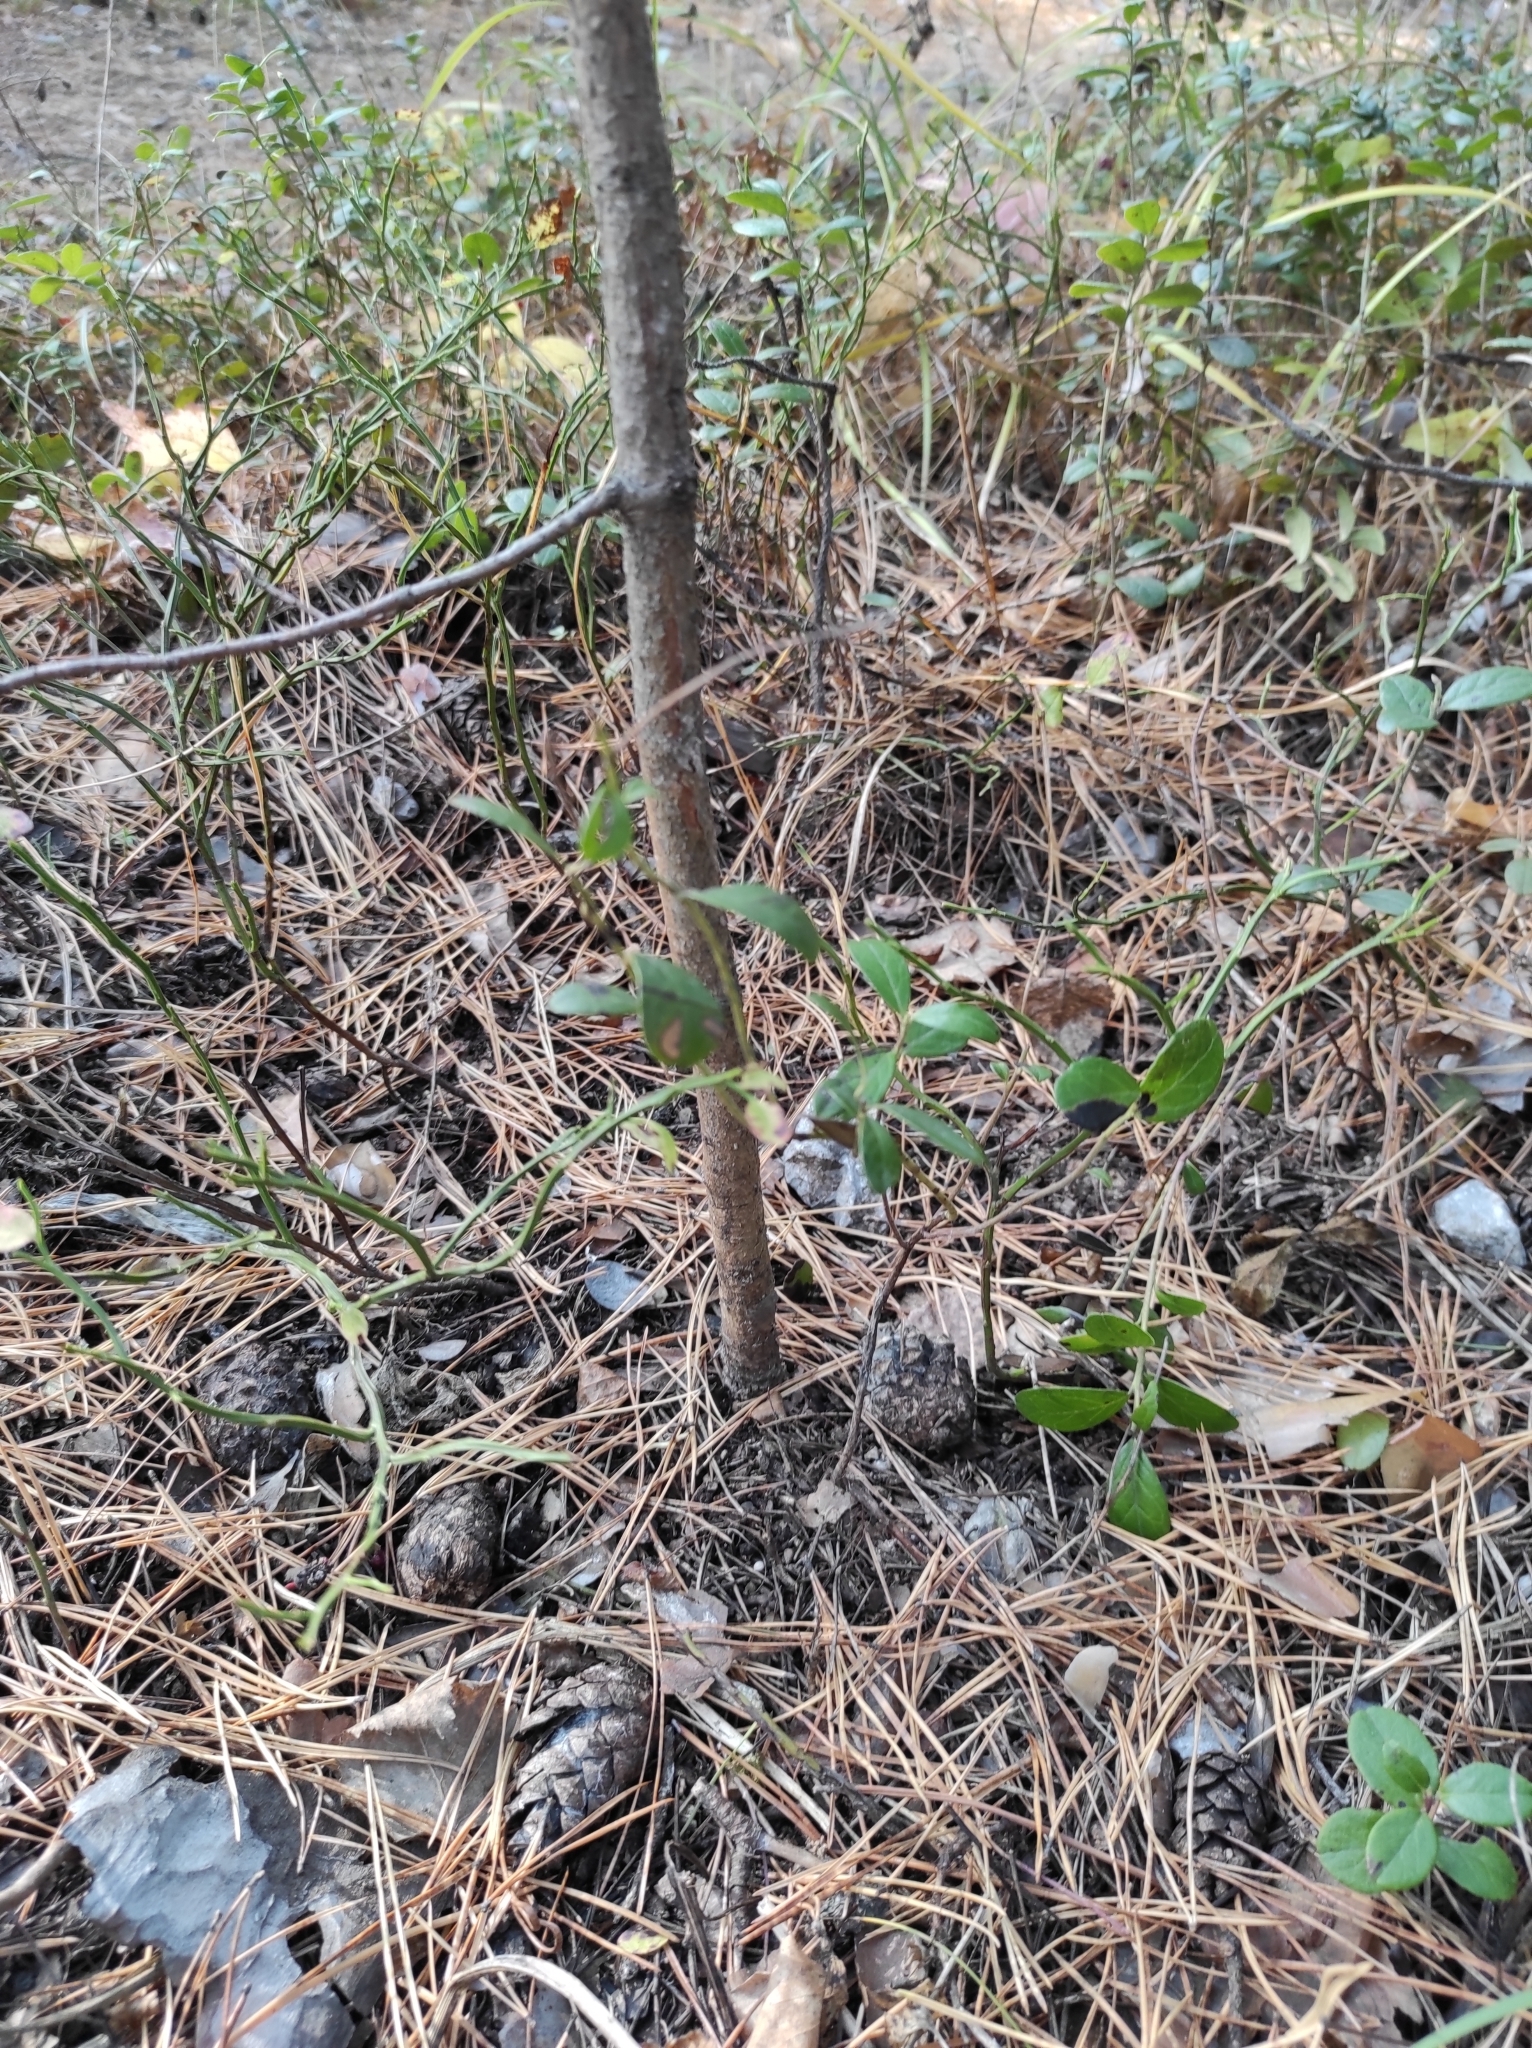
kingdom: Plantae
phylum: Tracheophyta
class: Magnoliopsida
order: Ericales
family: Ericaceae
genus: Vaccinium
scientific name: Vaccinium vitis-idaea
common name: Cowberry
